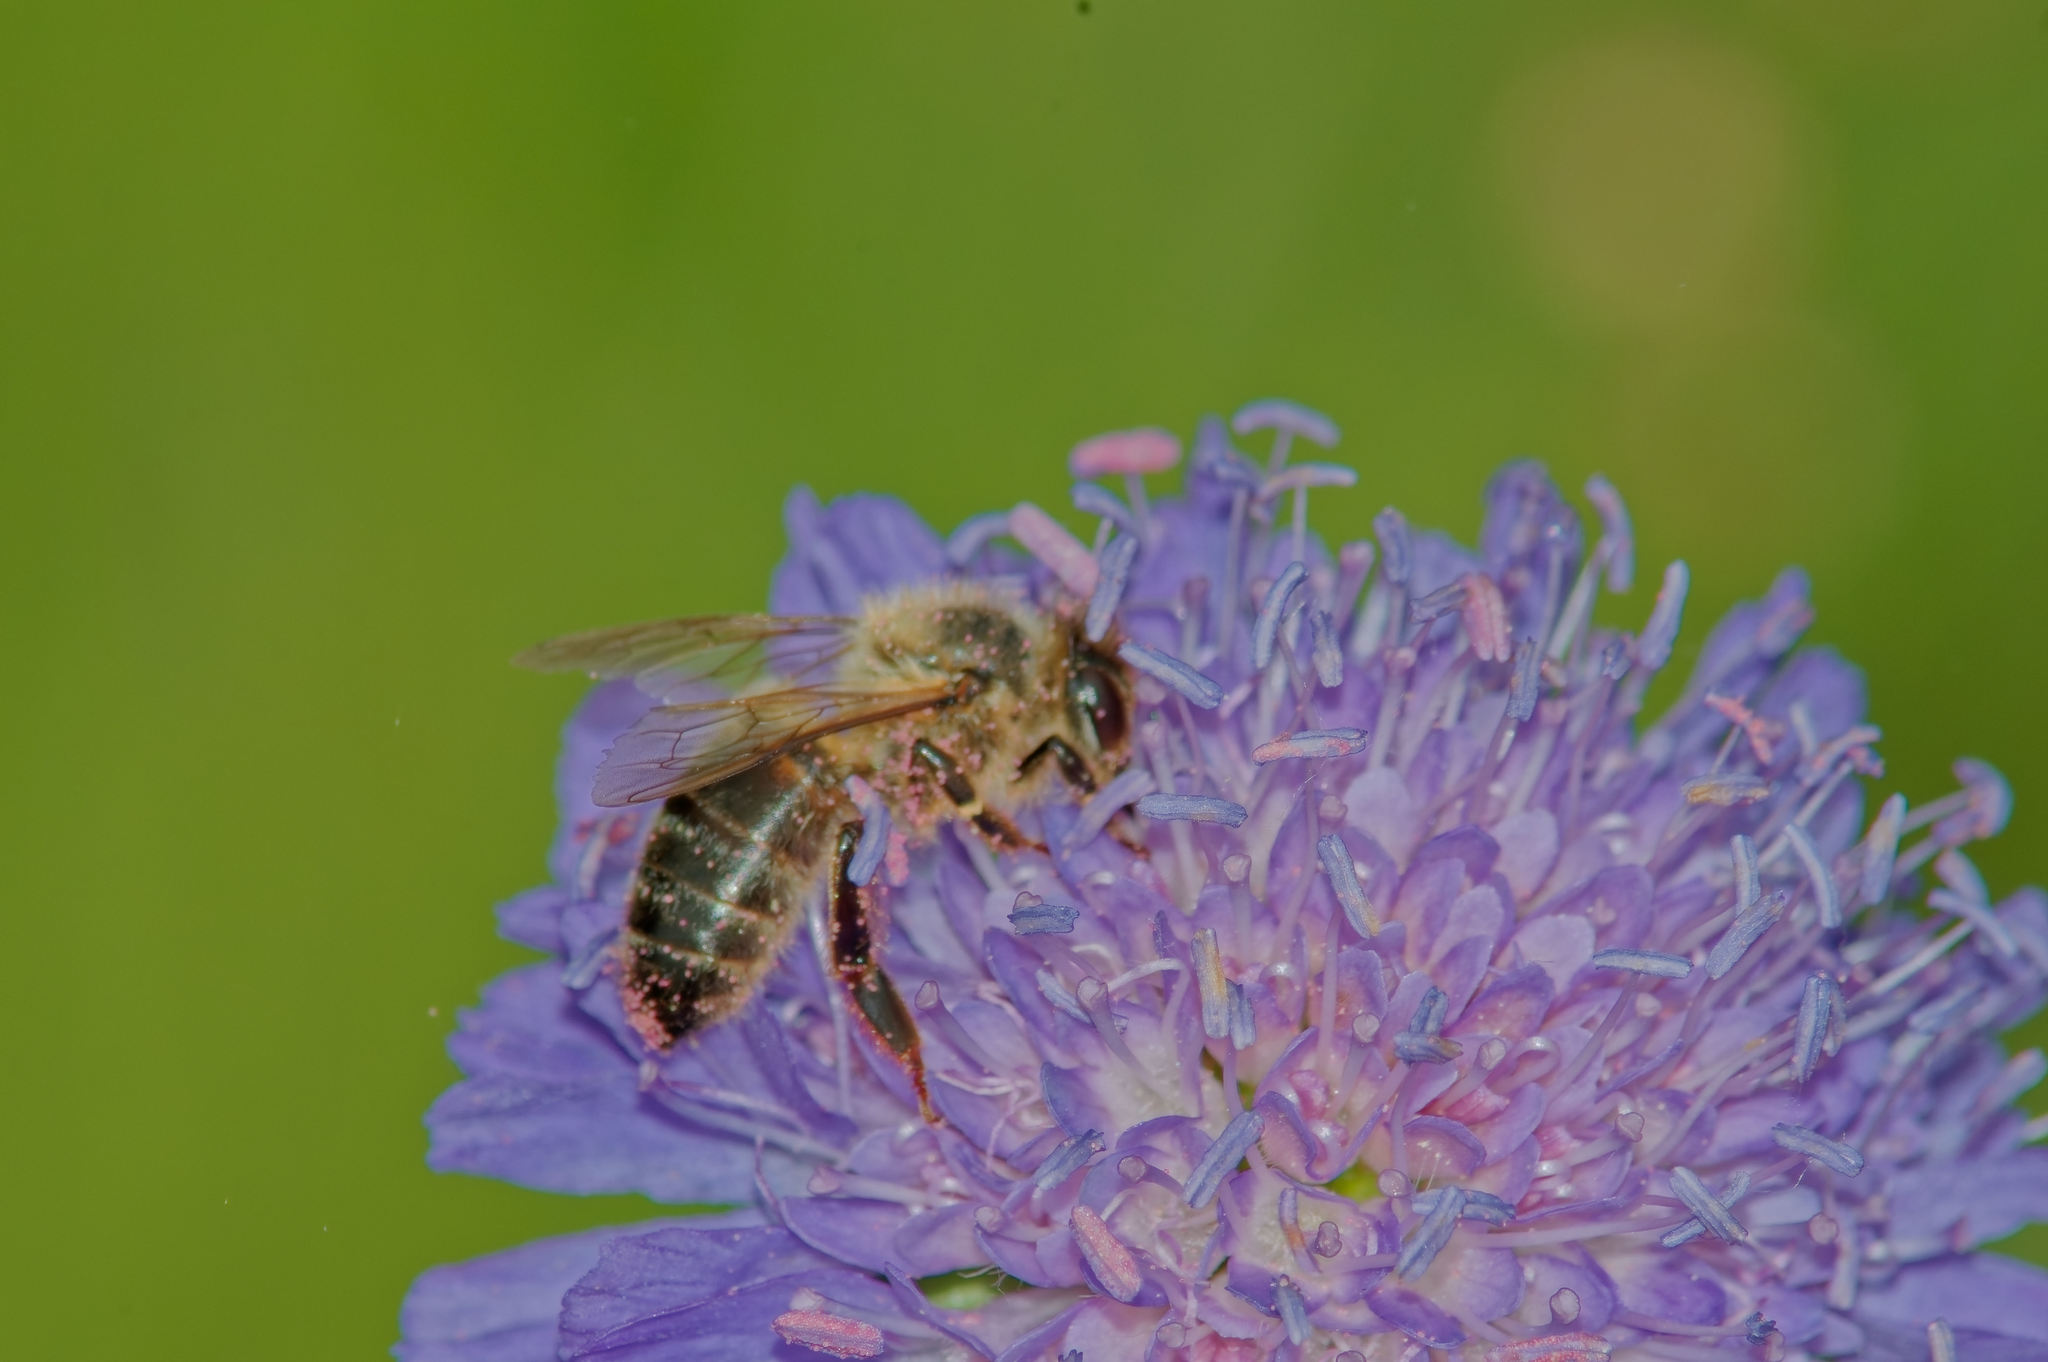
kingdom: Animalia
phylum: Arthropoda
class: Insecta
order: Hymenoptera
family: Apidae
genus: Apis
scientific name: Apis mellifera
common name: Honey bee
